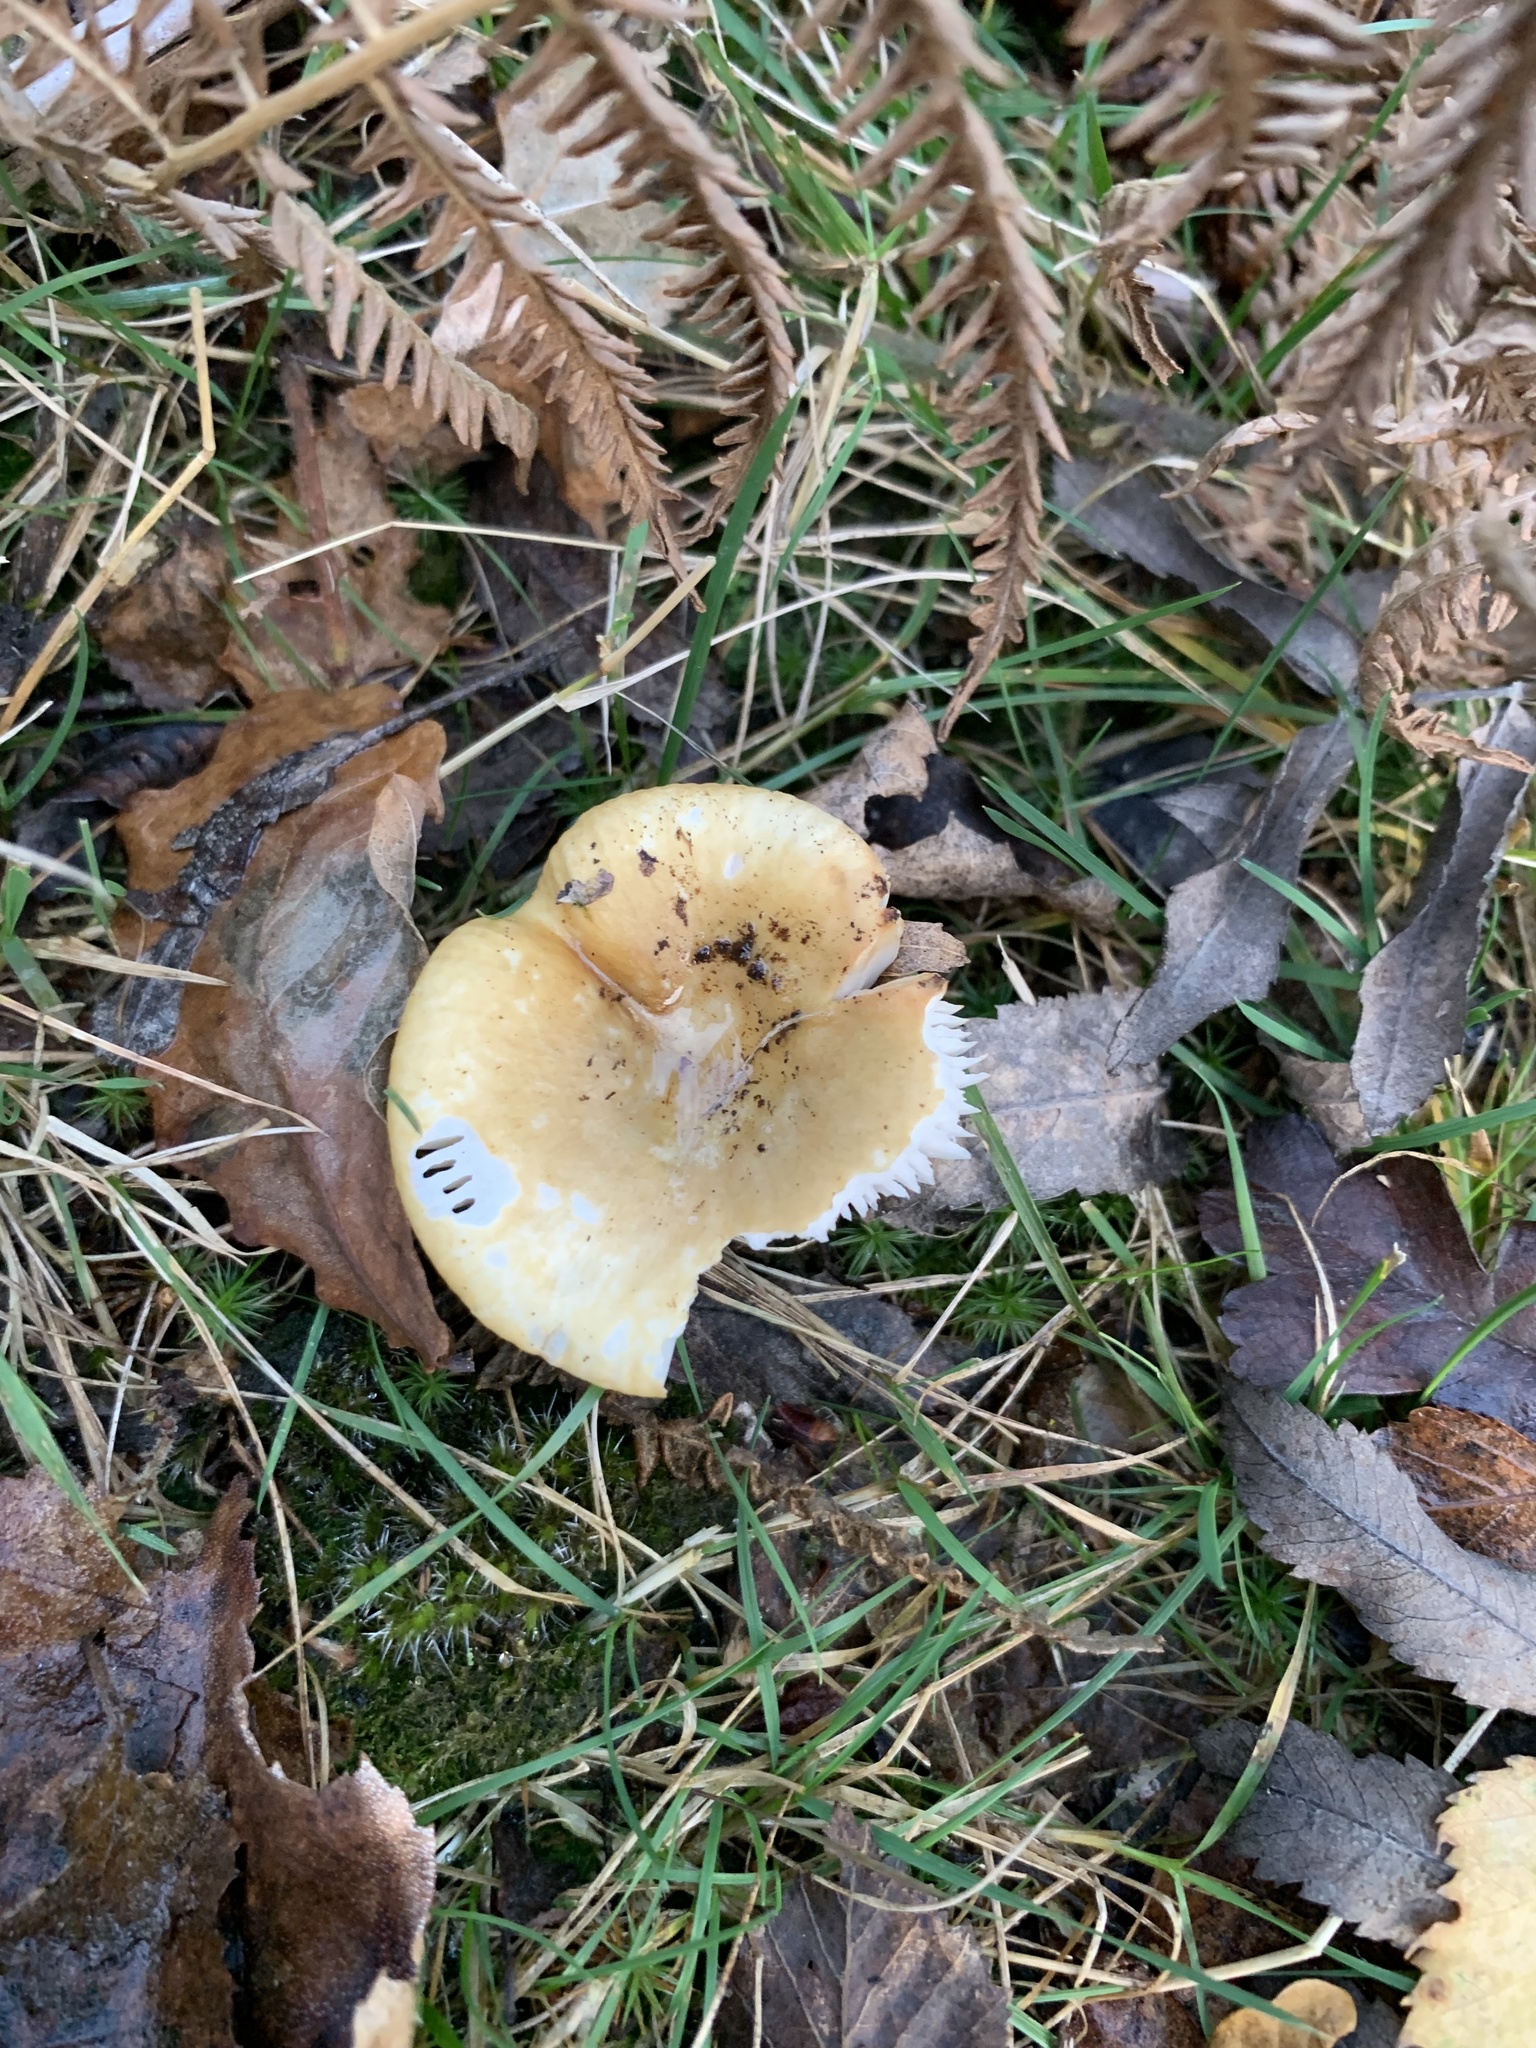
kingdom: Fungi
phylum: Basidiomycota
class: Agaricomycetes
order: Russulales
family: Russulaceae
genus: Russula
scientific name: Russula ochroleuca
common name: Common yellow russula
